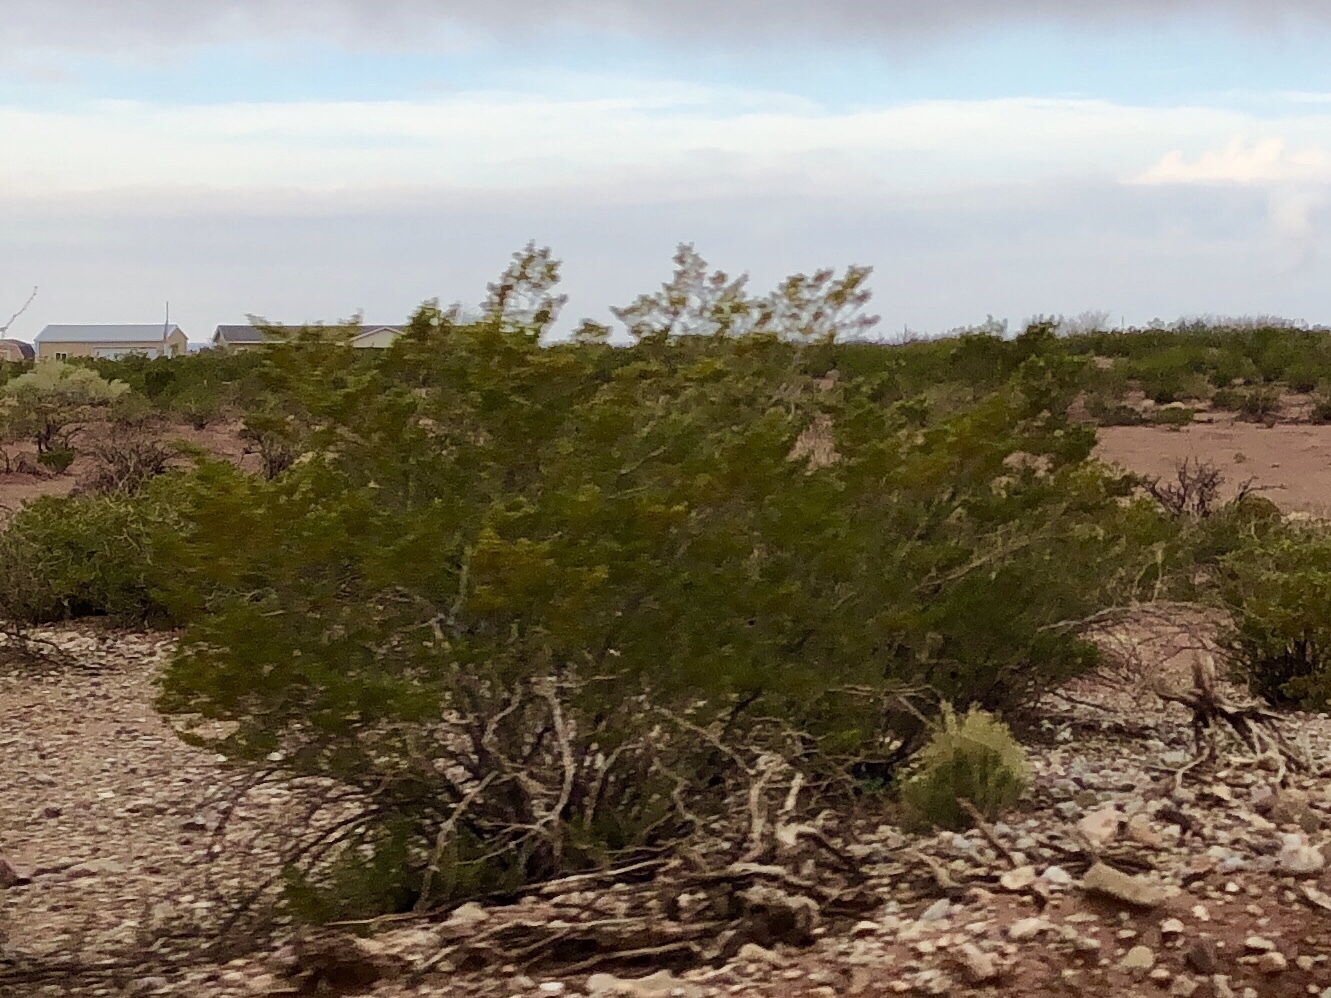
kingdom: Plantae
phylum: Tracheophyta
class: Magnoliopsida
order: Zygophyllales
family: Zygophyllaceae
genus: Larrea
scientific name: Larrea tridentata
